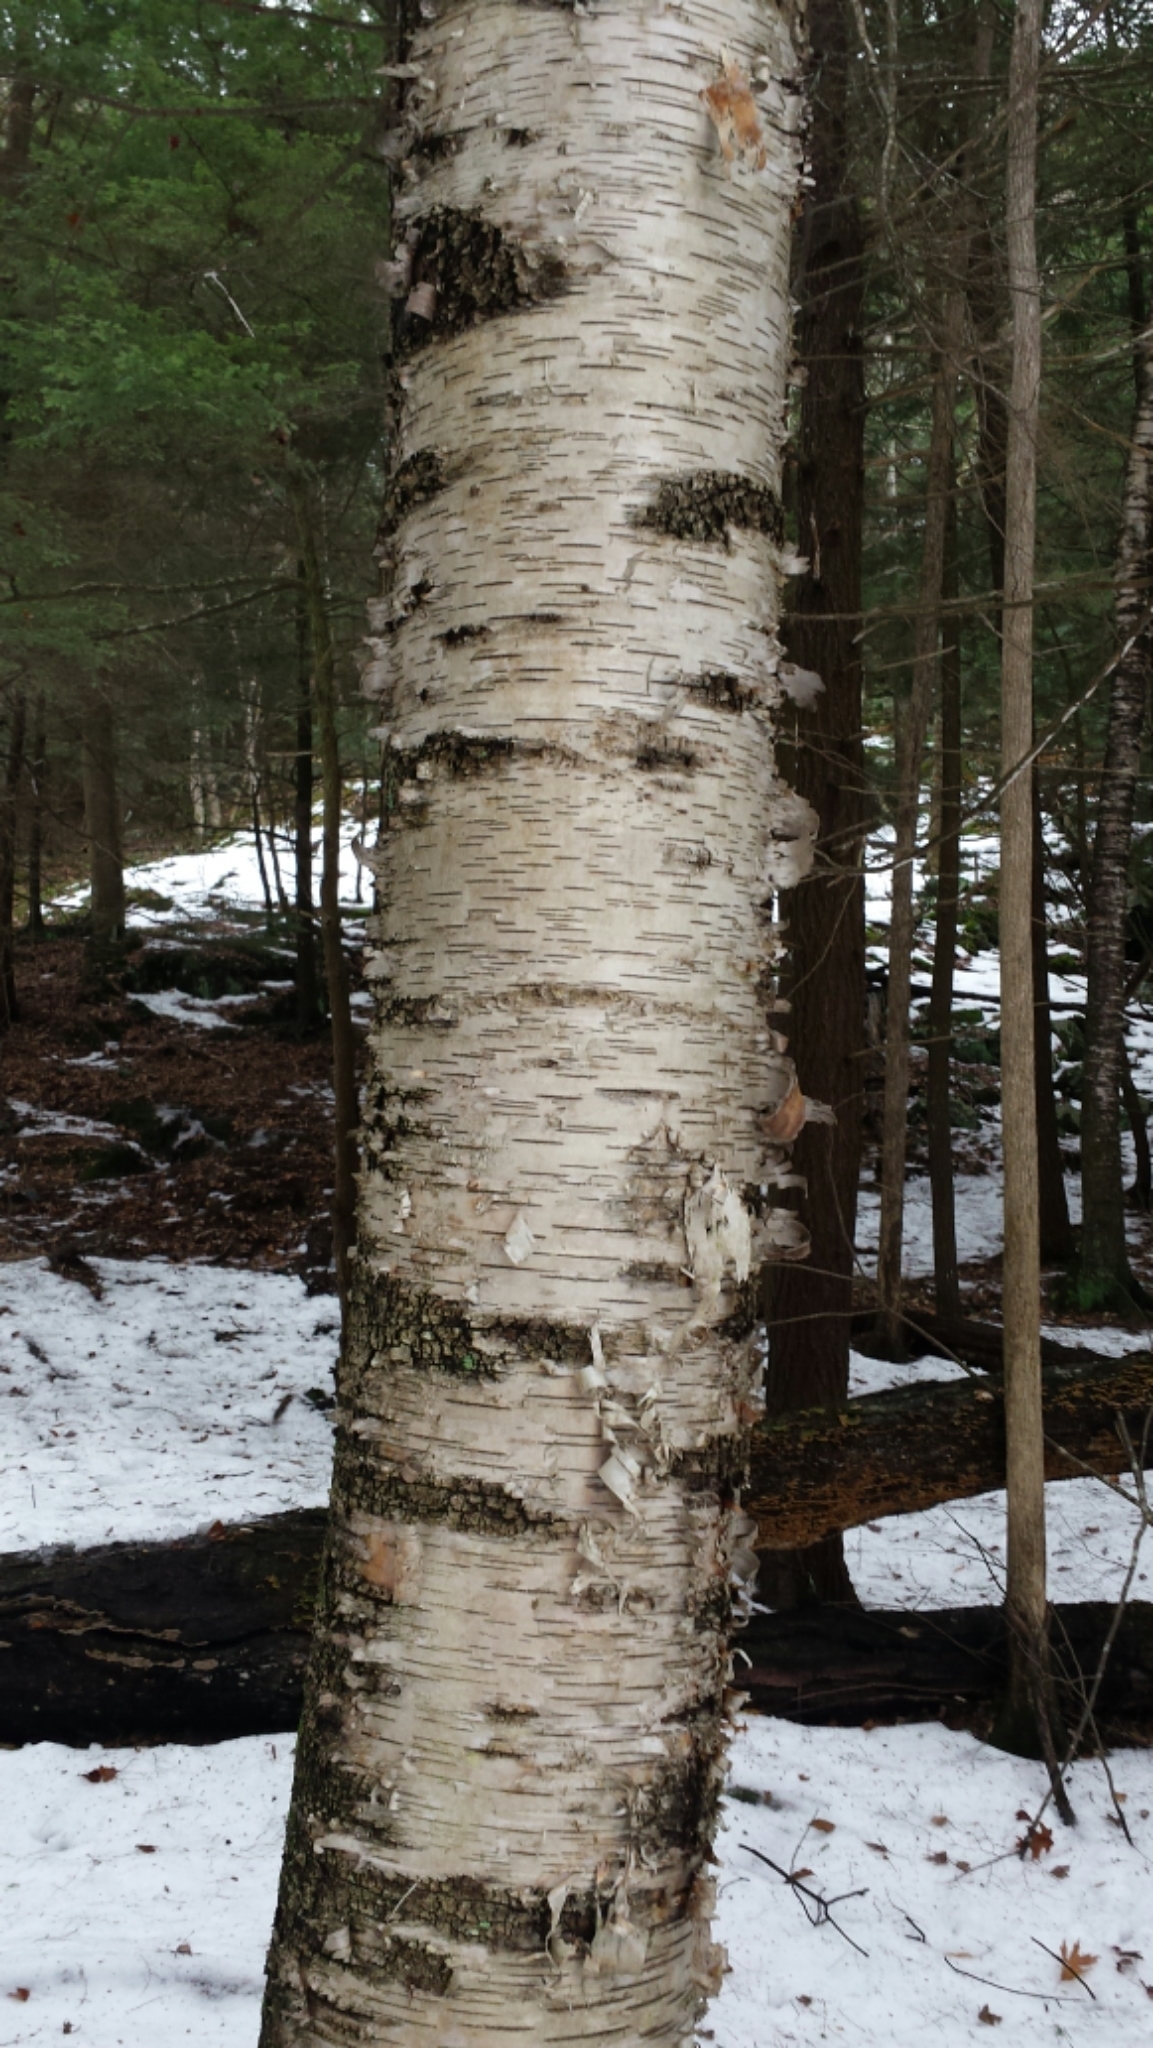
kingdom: Plantae
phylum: Tracheophyta
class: Magnoliopsida
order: Fagales
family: Betulaceae
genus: Betula
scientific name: Betula papyrifera
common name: Paper birch
